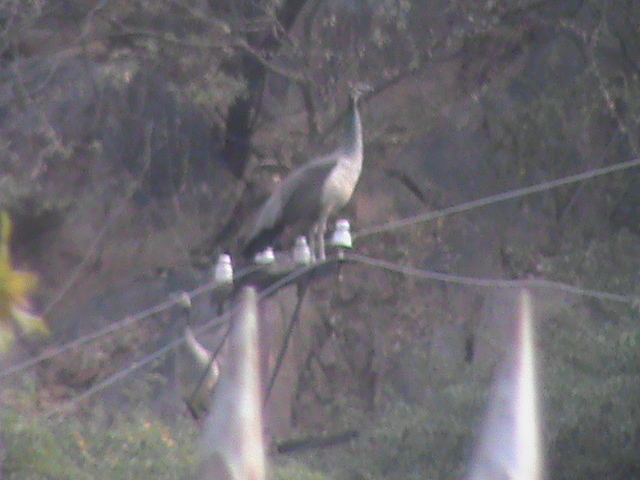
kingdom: Animalia
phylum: Chordata
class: Aves
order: Galliformes
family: Phasianidae
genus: Pavo
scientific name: Pavo cristatus
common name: Indian peafowl
